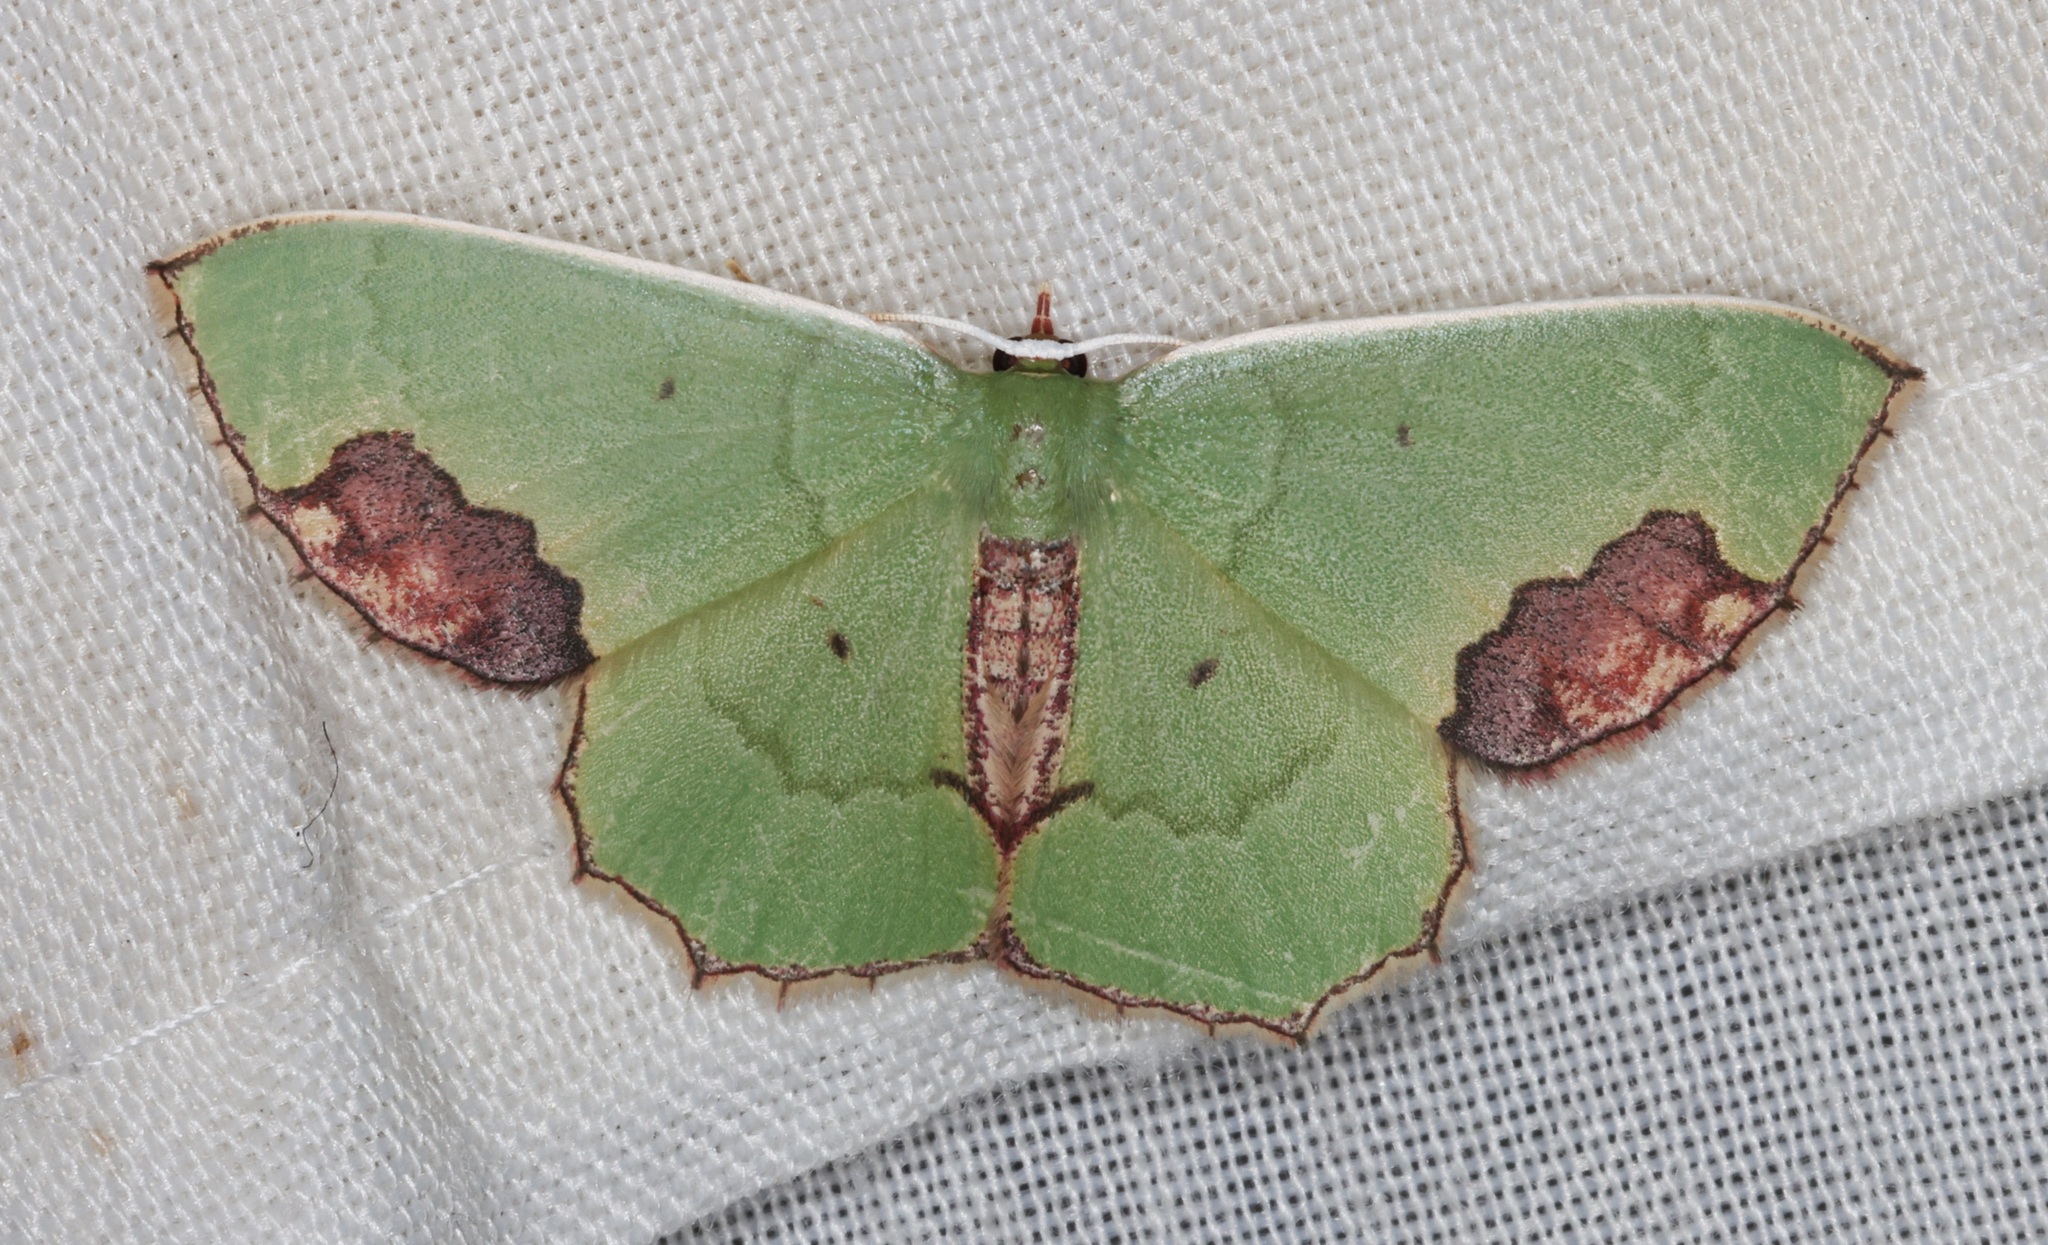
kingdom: Animalia
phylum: Arthropoda
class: Insecta
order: Lepidoptera
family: Geometridae
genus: Rhomborista
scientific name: Rhomborista monosticta
